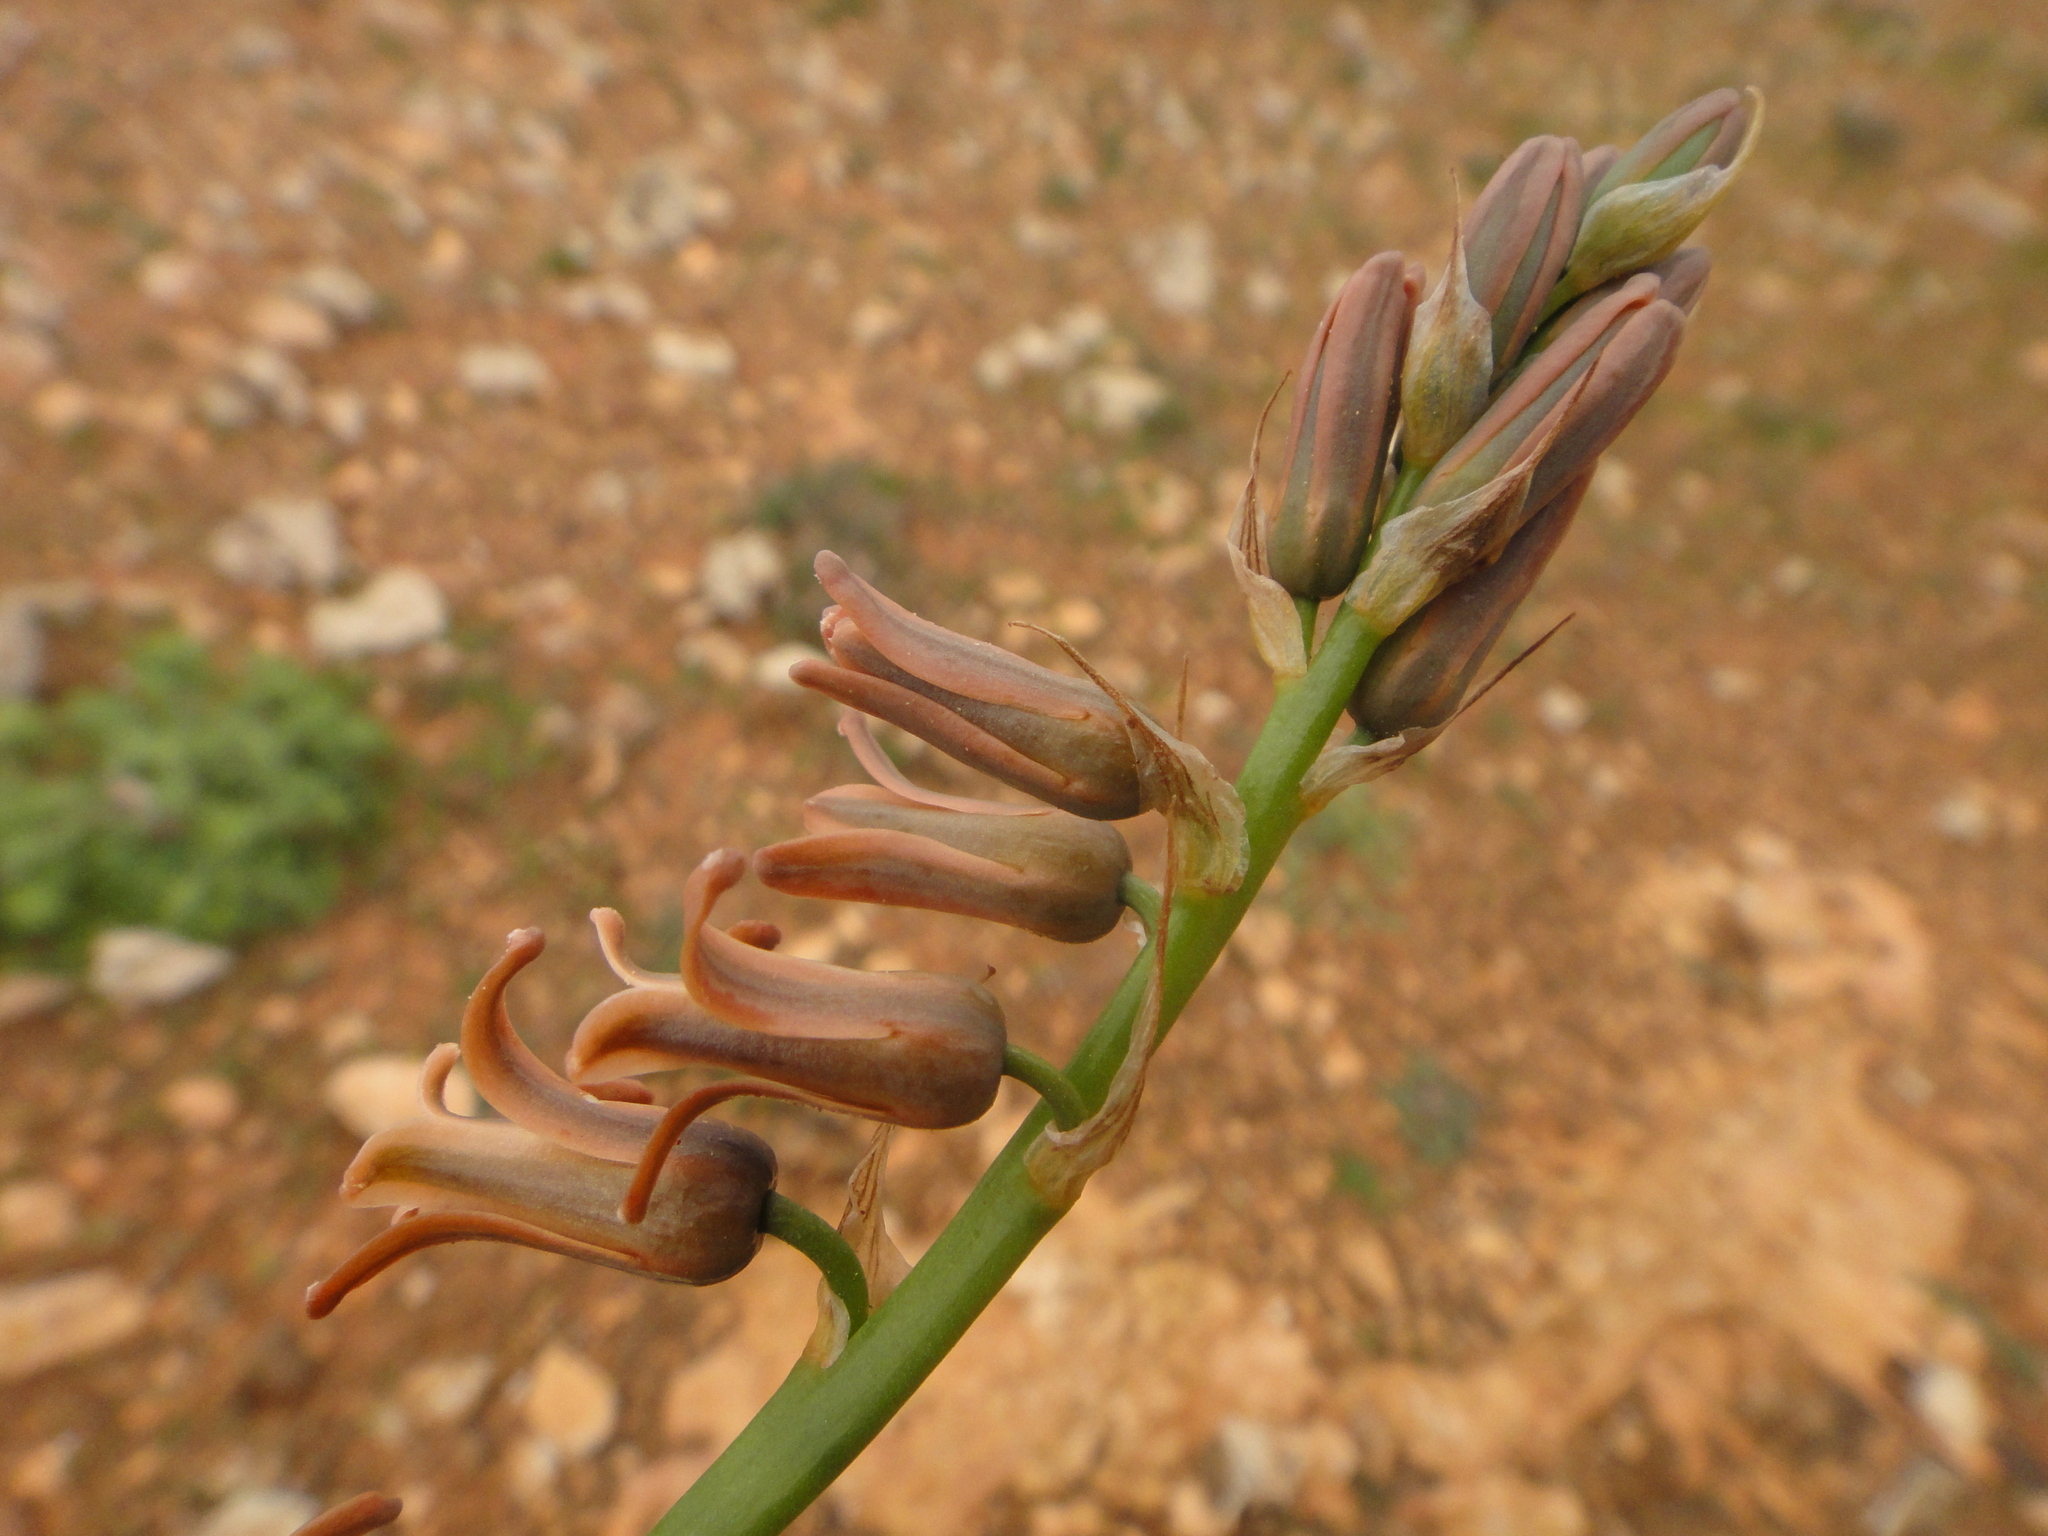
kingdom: Plantae
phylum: Tracheophyta
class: Liliopsida
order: Asparagales
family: Asparagaceae
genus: Dipcadi
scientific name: Dipcadi serotinum
